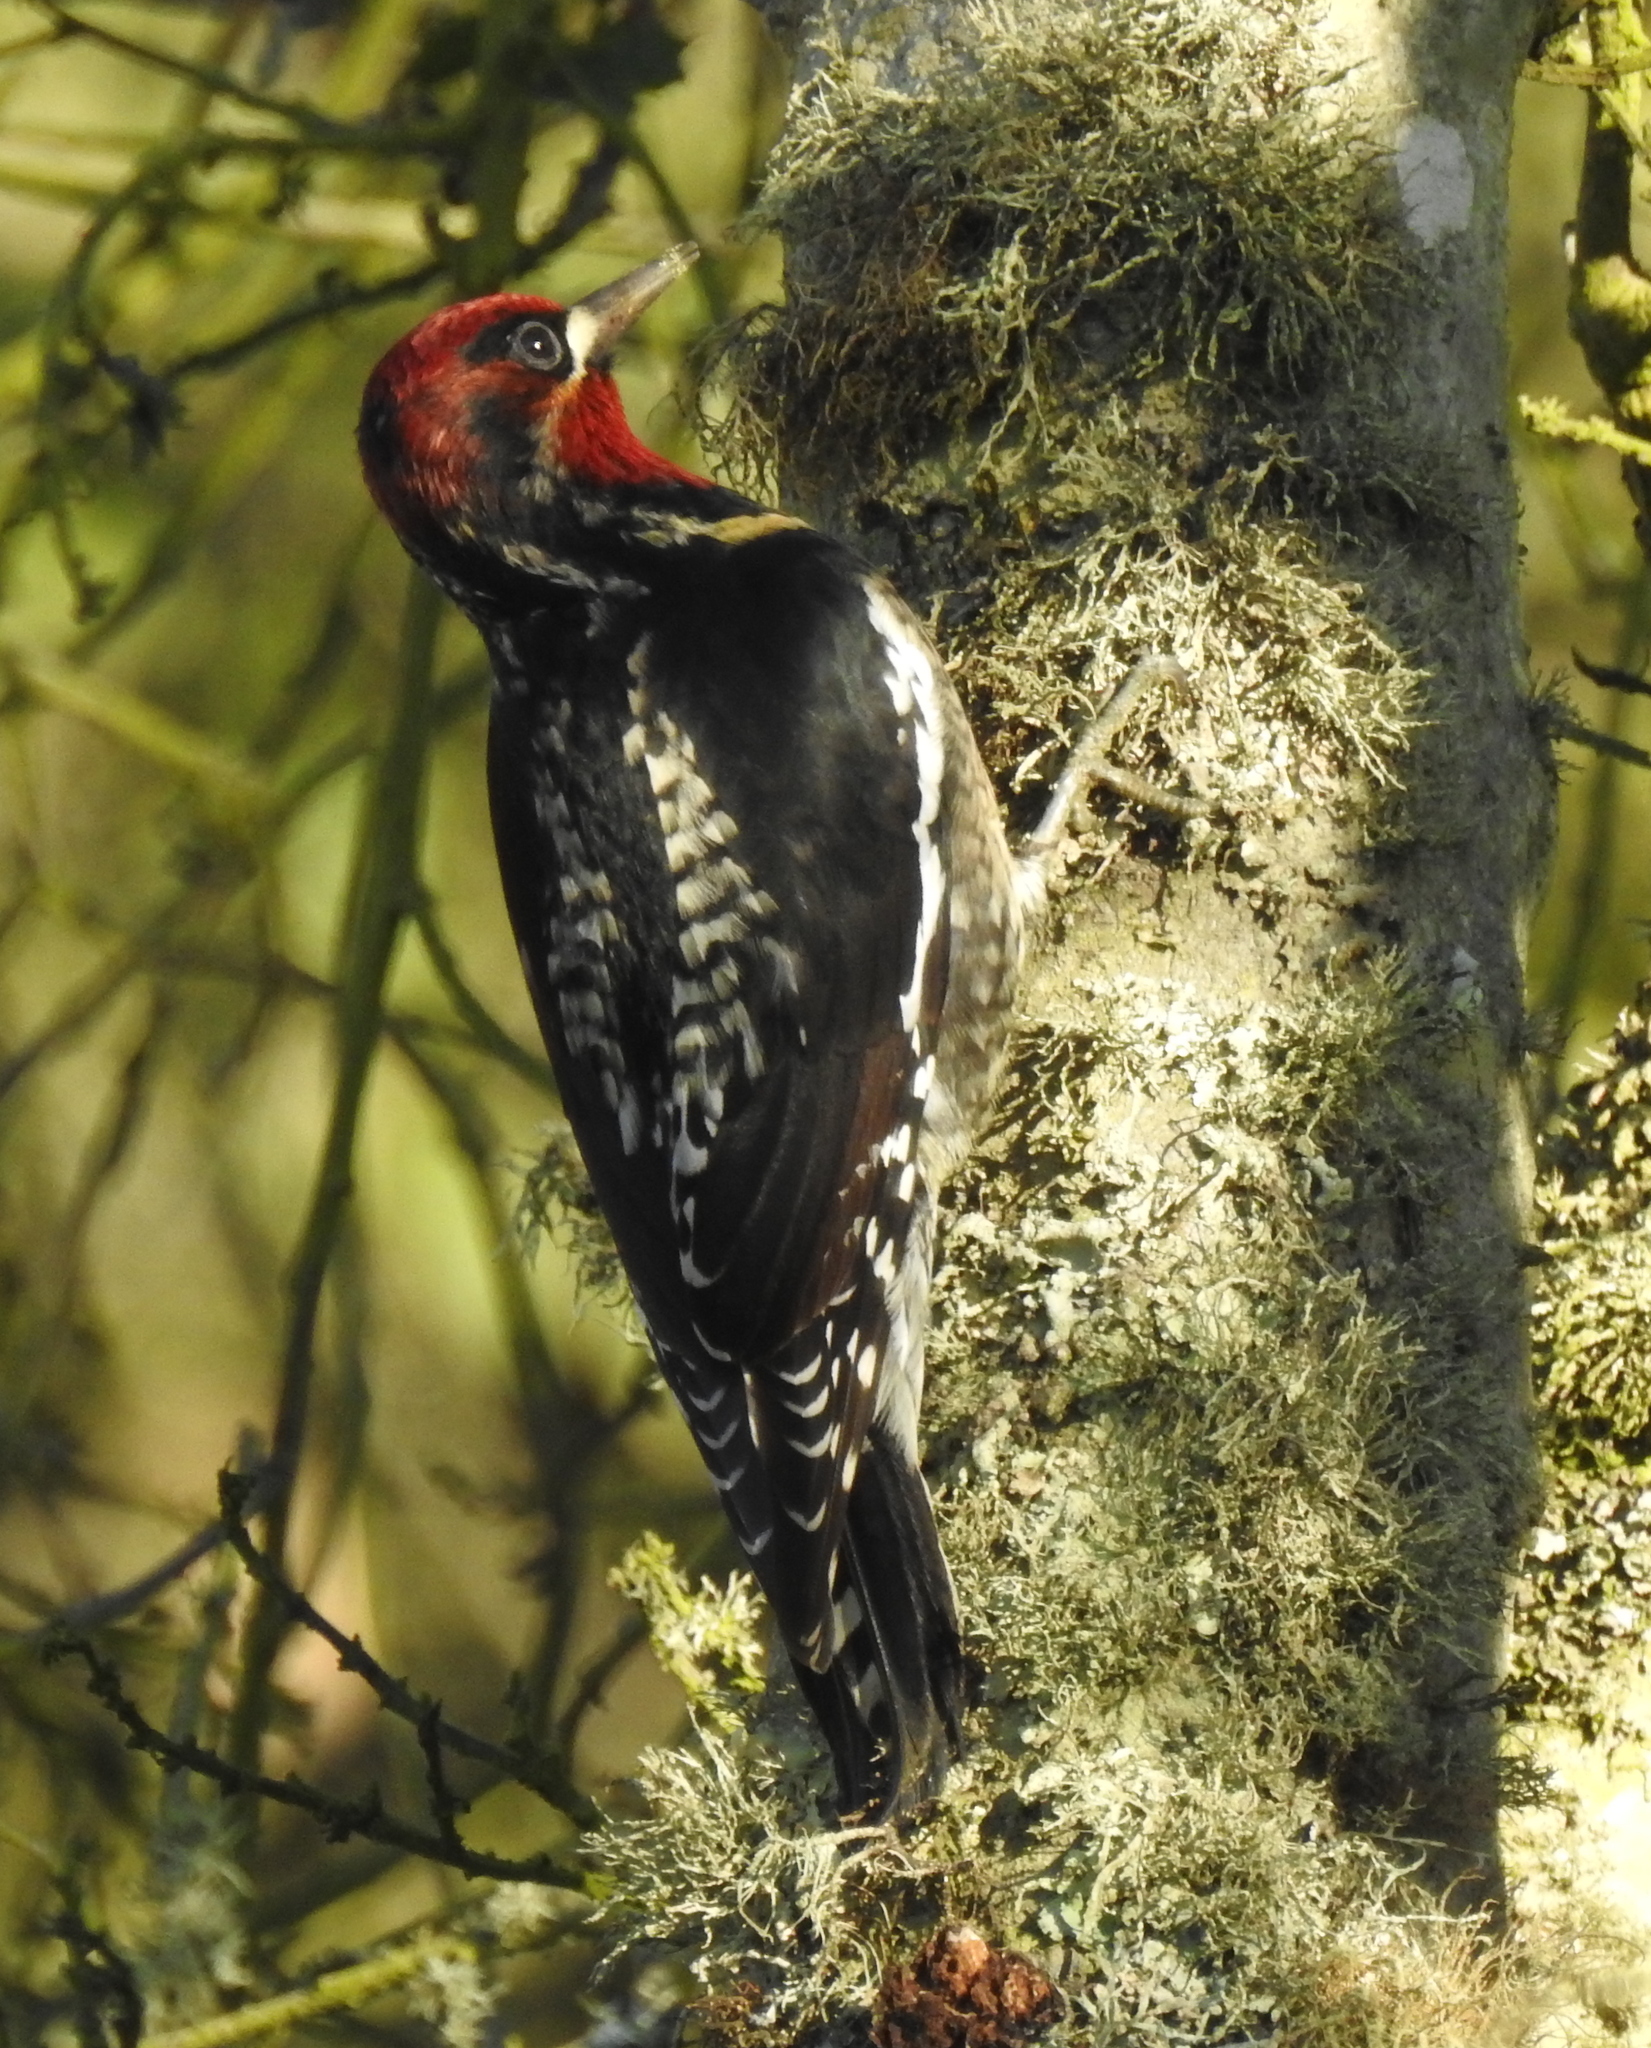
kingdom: Animalia
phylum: Chordata
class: Aves
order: Piciformes
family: Picidae
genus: Sphyrapicus
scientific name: Sphyrapicus
